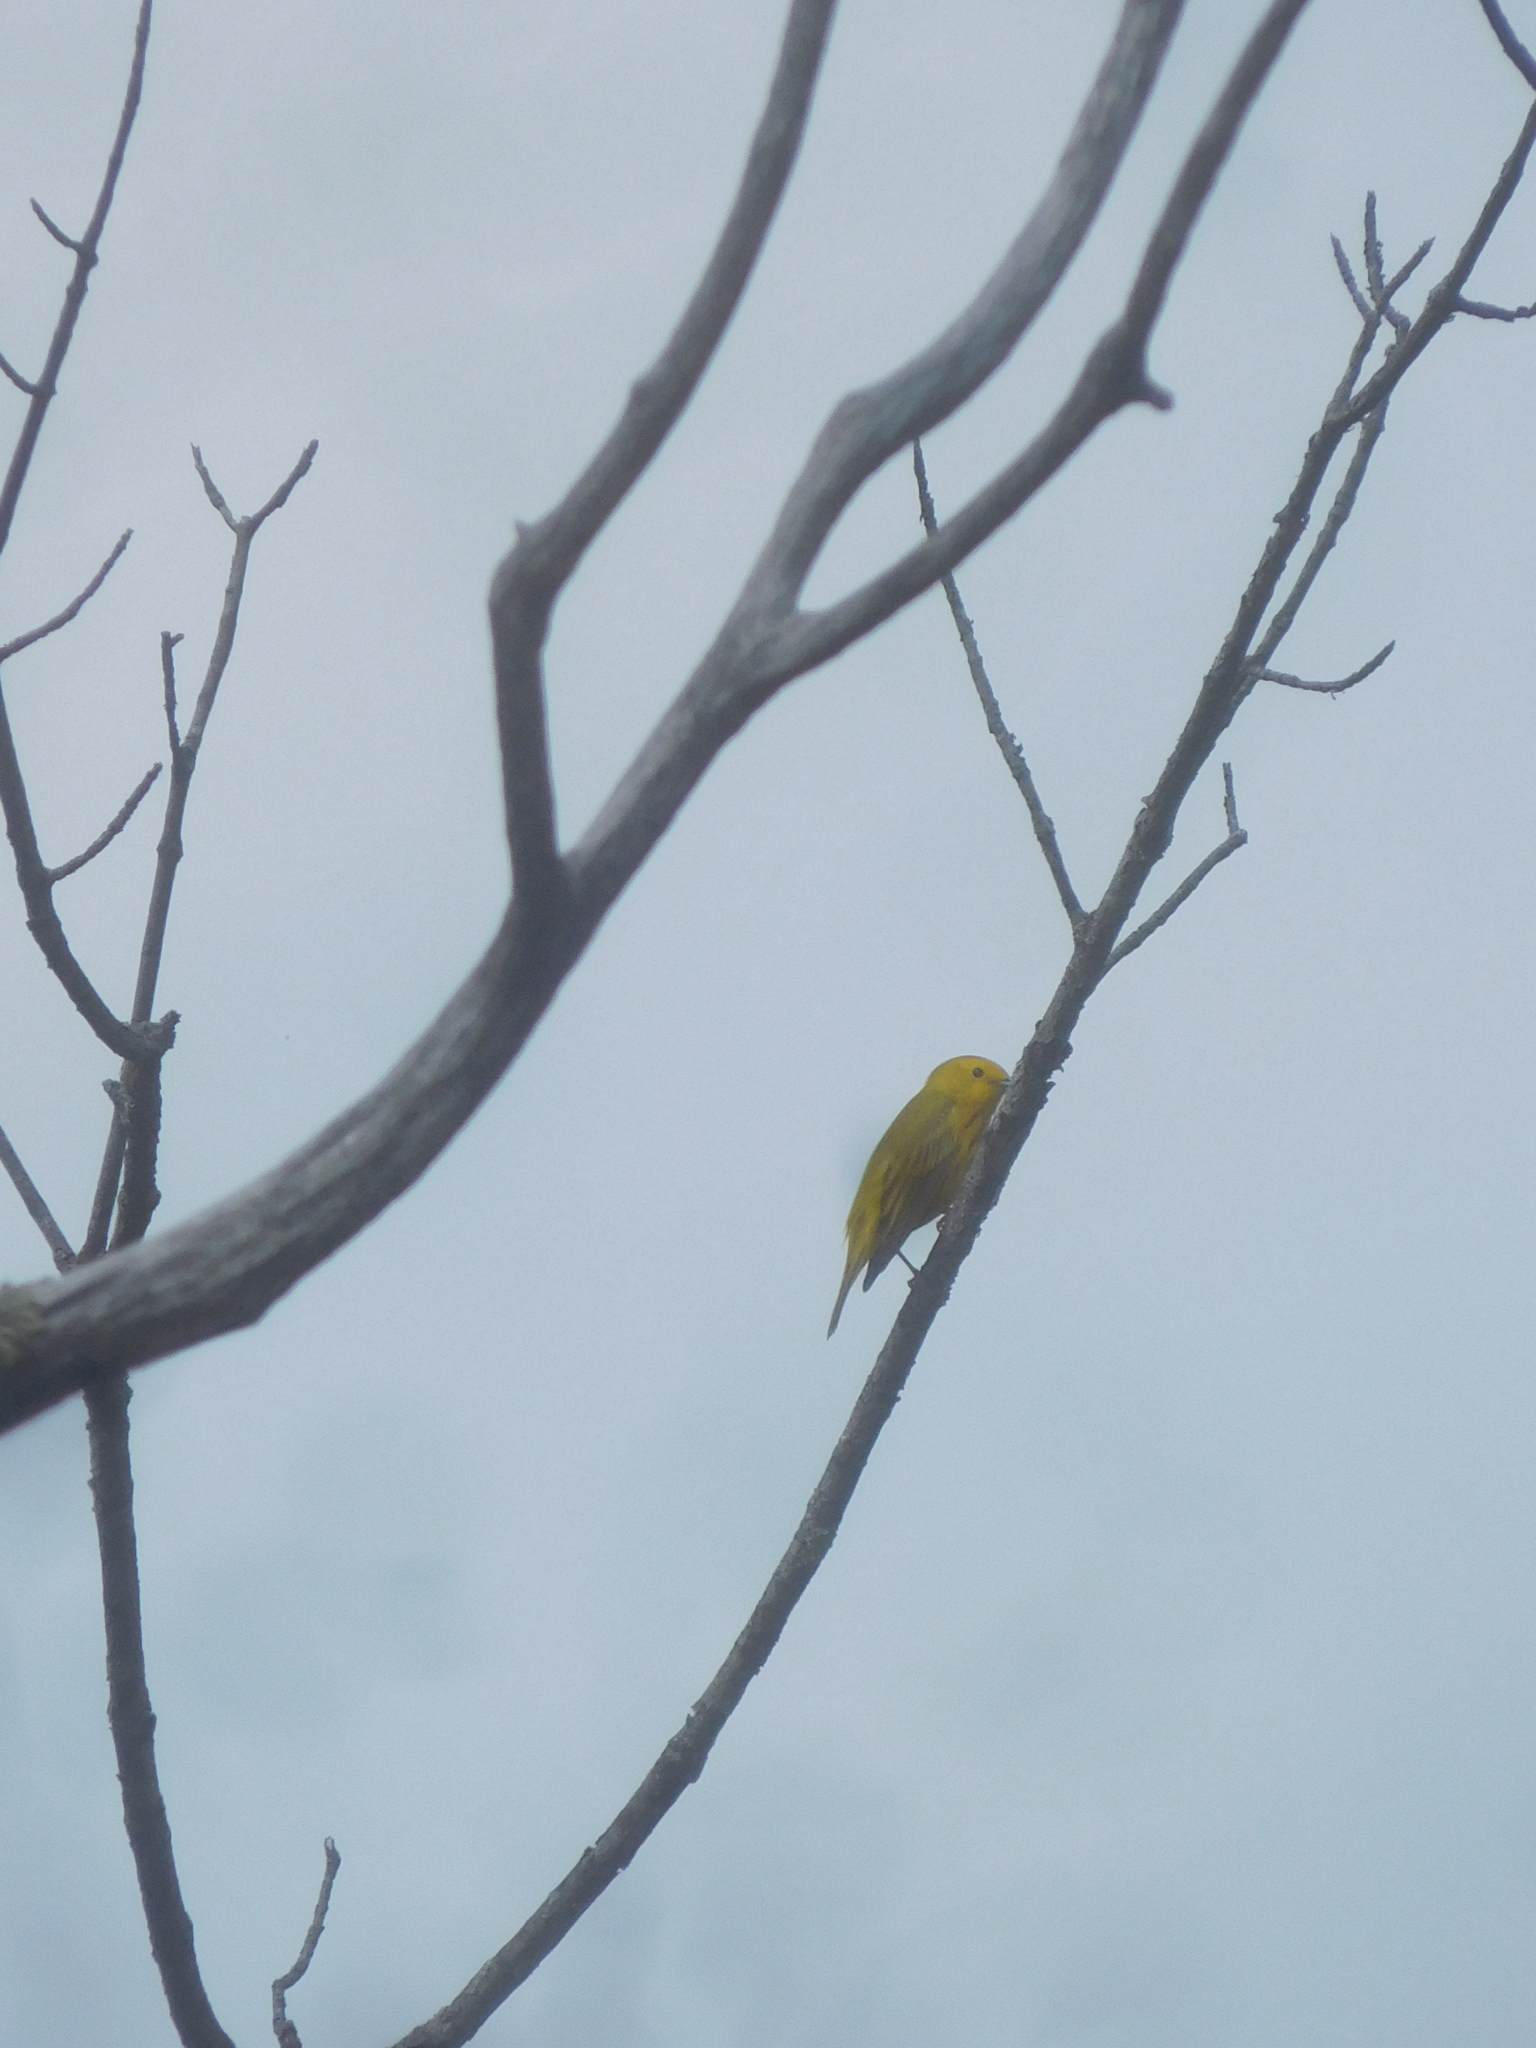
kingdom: Animalia
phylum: Chordata
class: Aves
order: Passeriformes
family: Parulidae
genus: Setophaga
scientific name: Setophaga petechia
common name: Yellow warbler
